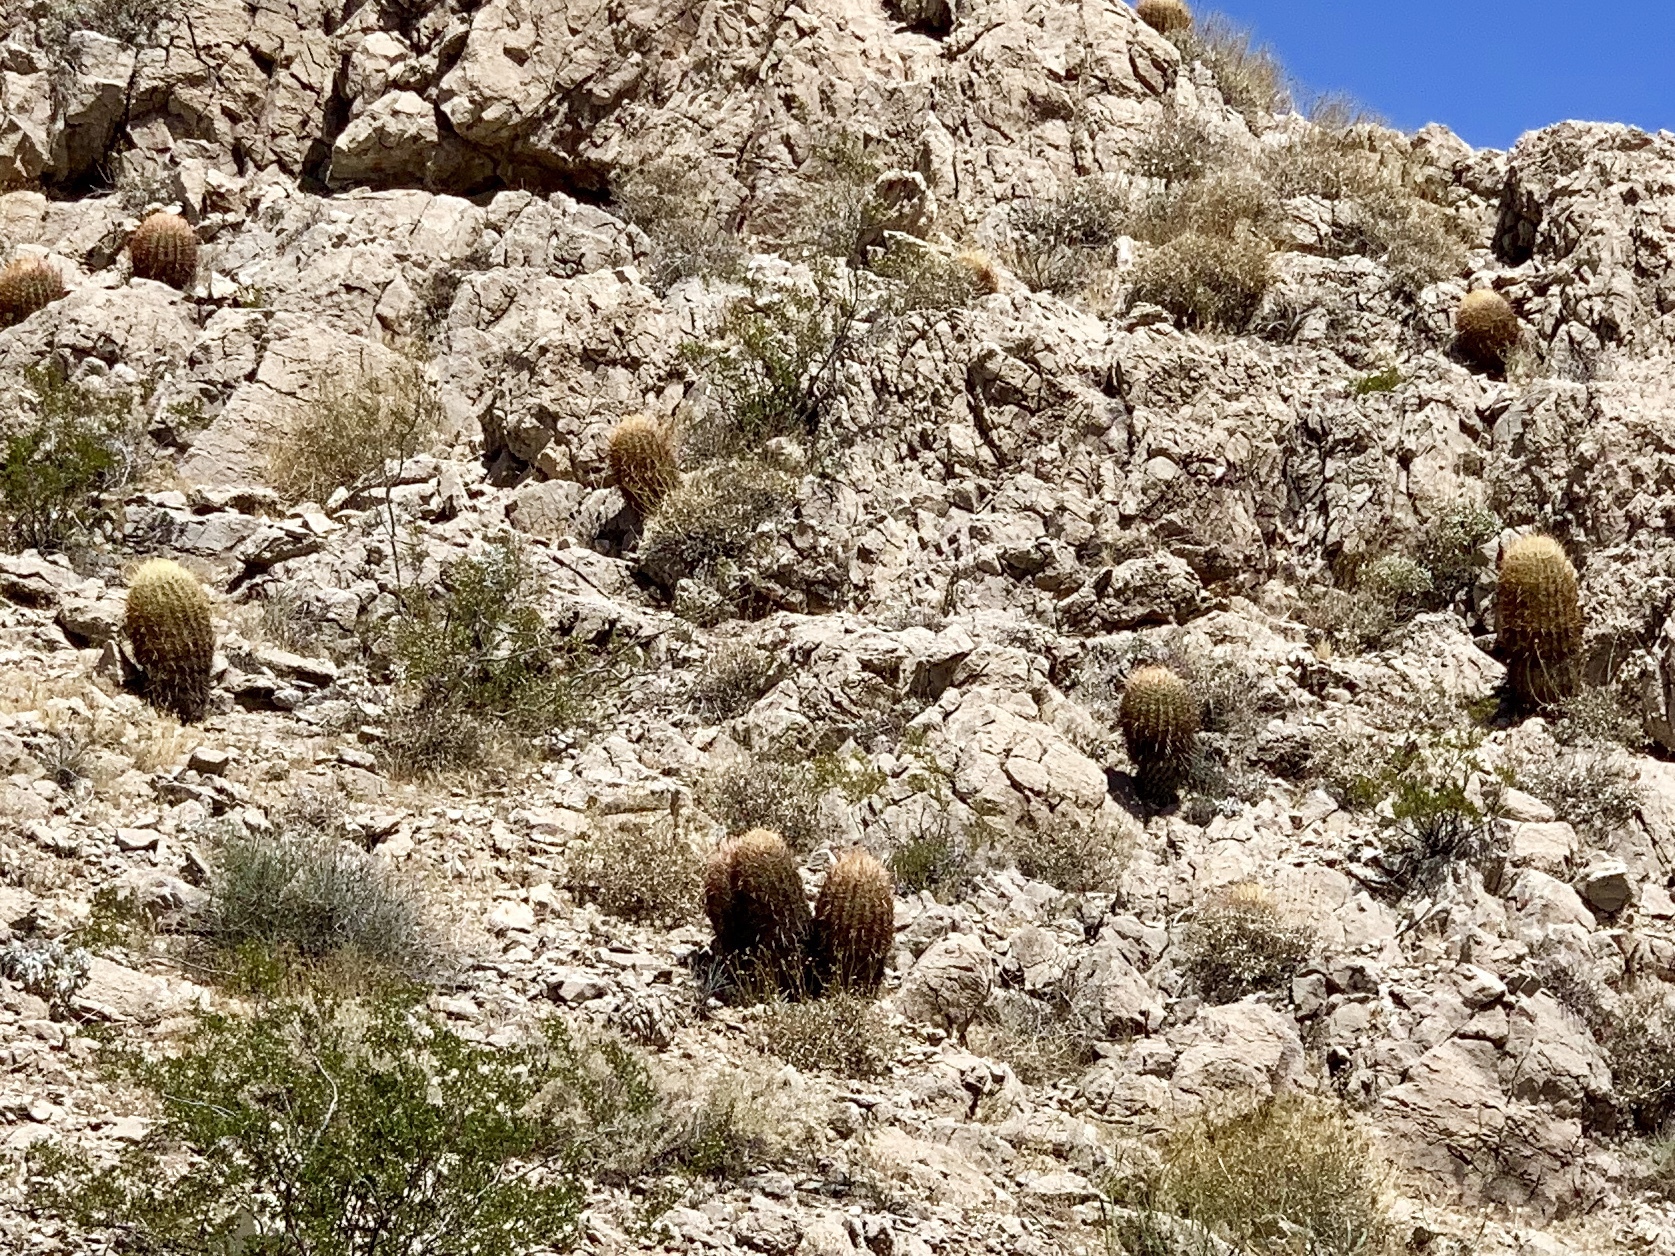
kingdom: Plantae
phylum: Tracheophyta
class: Magnoliopsida
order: Caryophyllales
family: Cactaceae
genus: Ferocactus
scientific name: Ferocactus cylindraceus
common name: California barrel cactus
